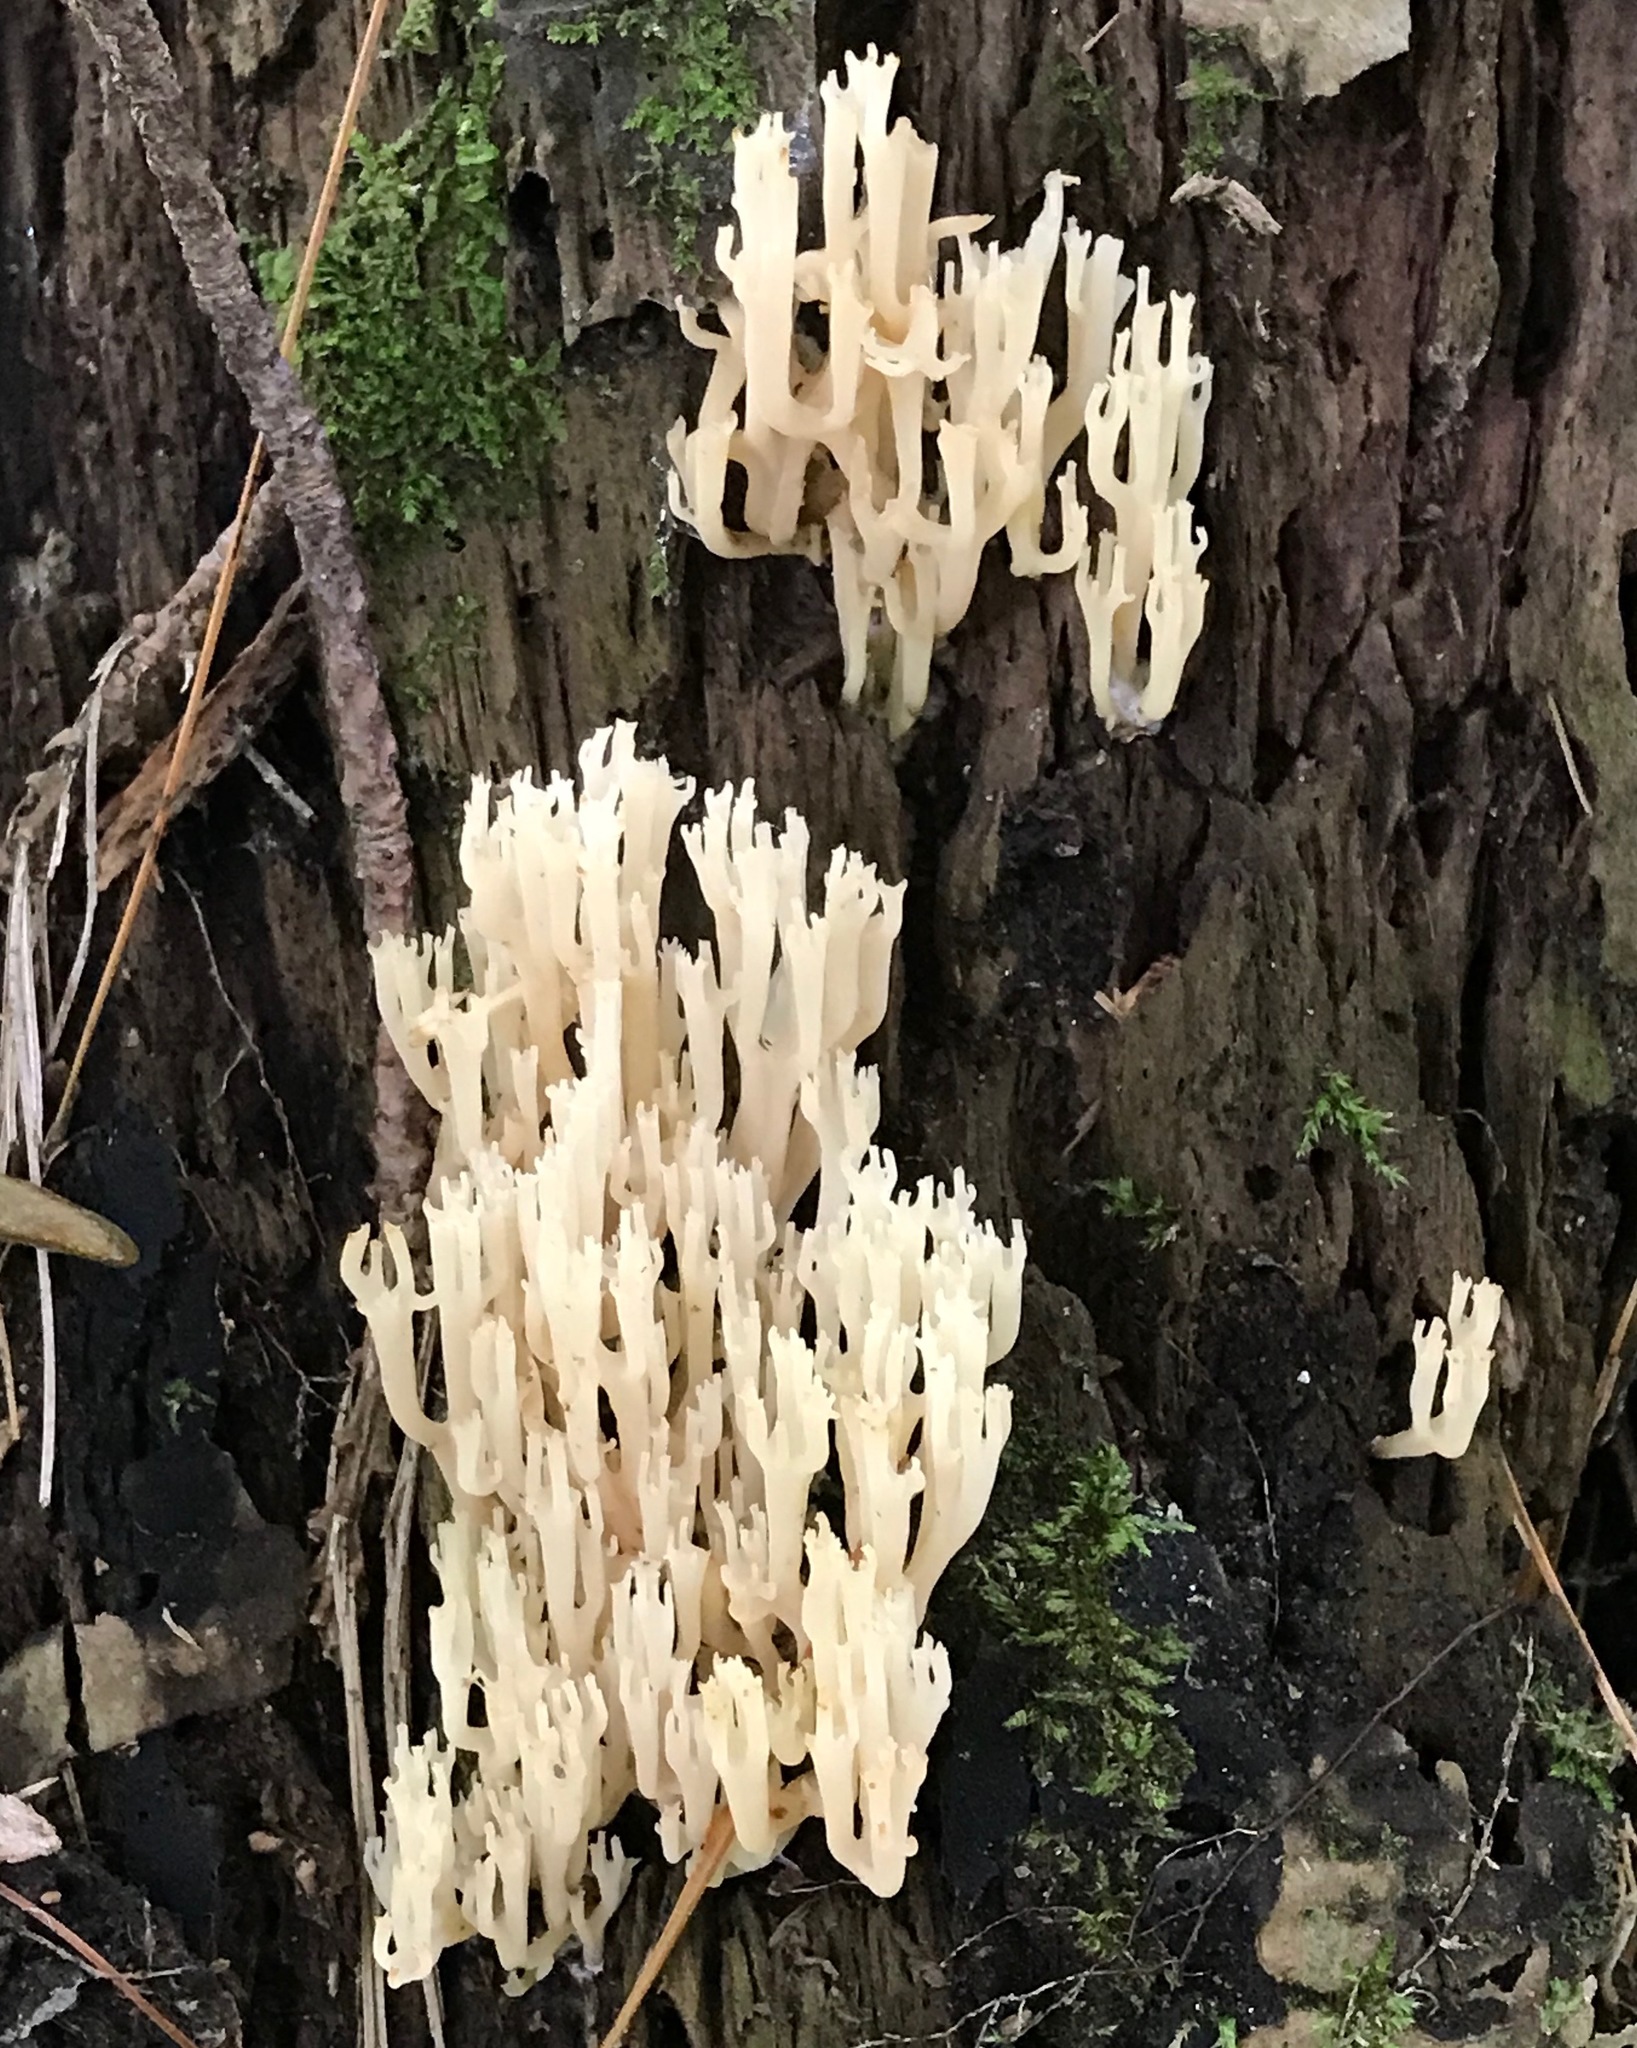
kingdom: Fungi
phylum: Basidiomycota
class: Agaricomycetes
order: Russulales
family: Auriscalpiaceae
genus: Artomyces
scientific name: Artomyces pyxidatus
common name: Crown-tipped coral fungus
